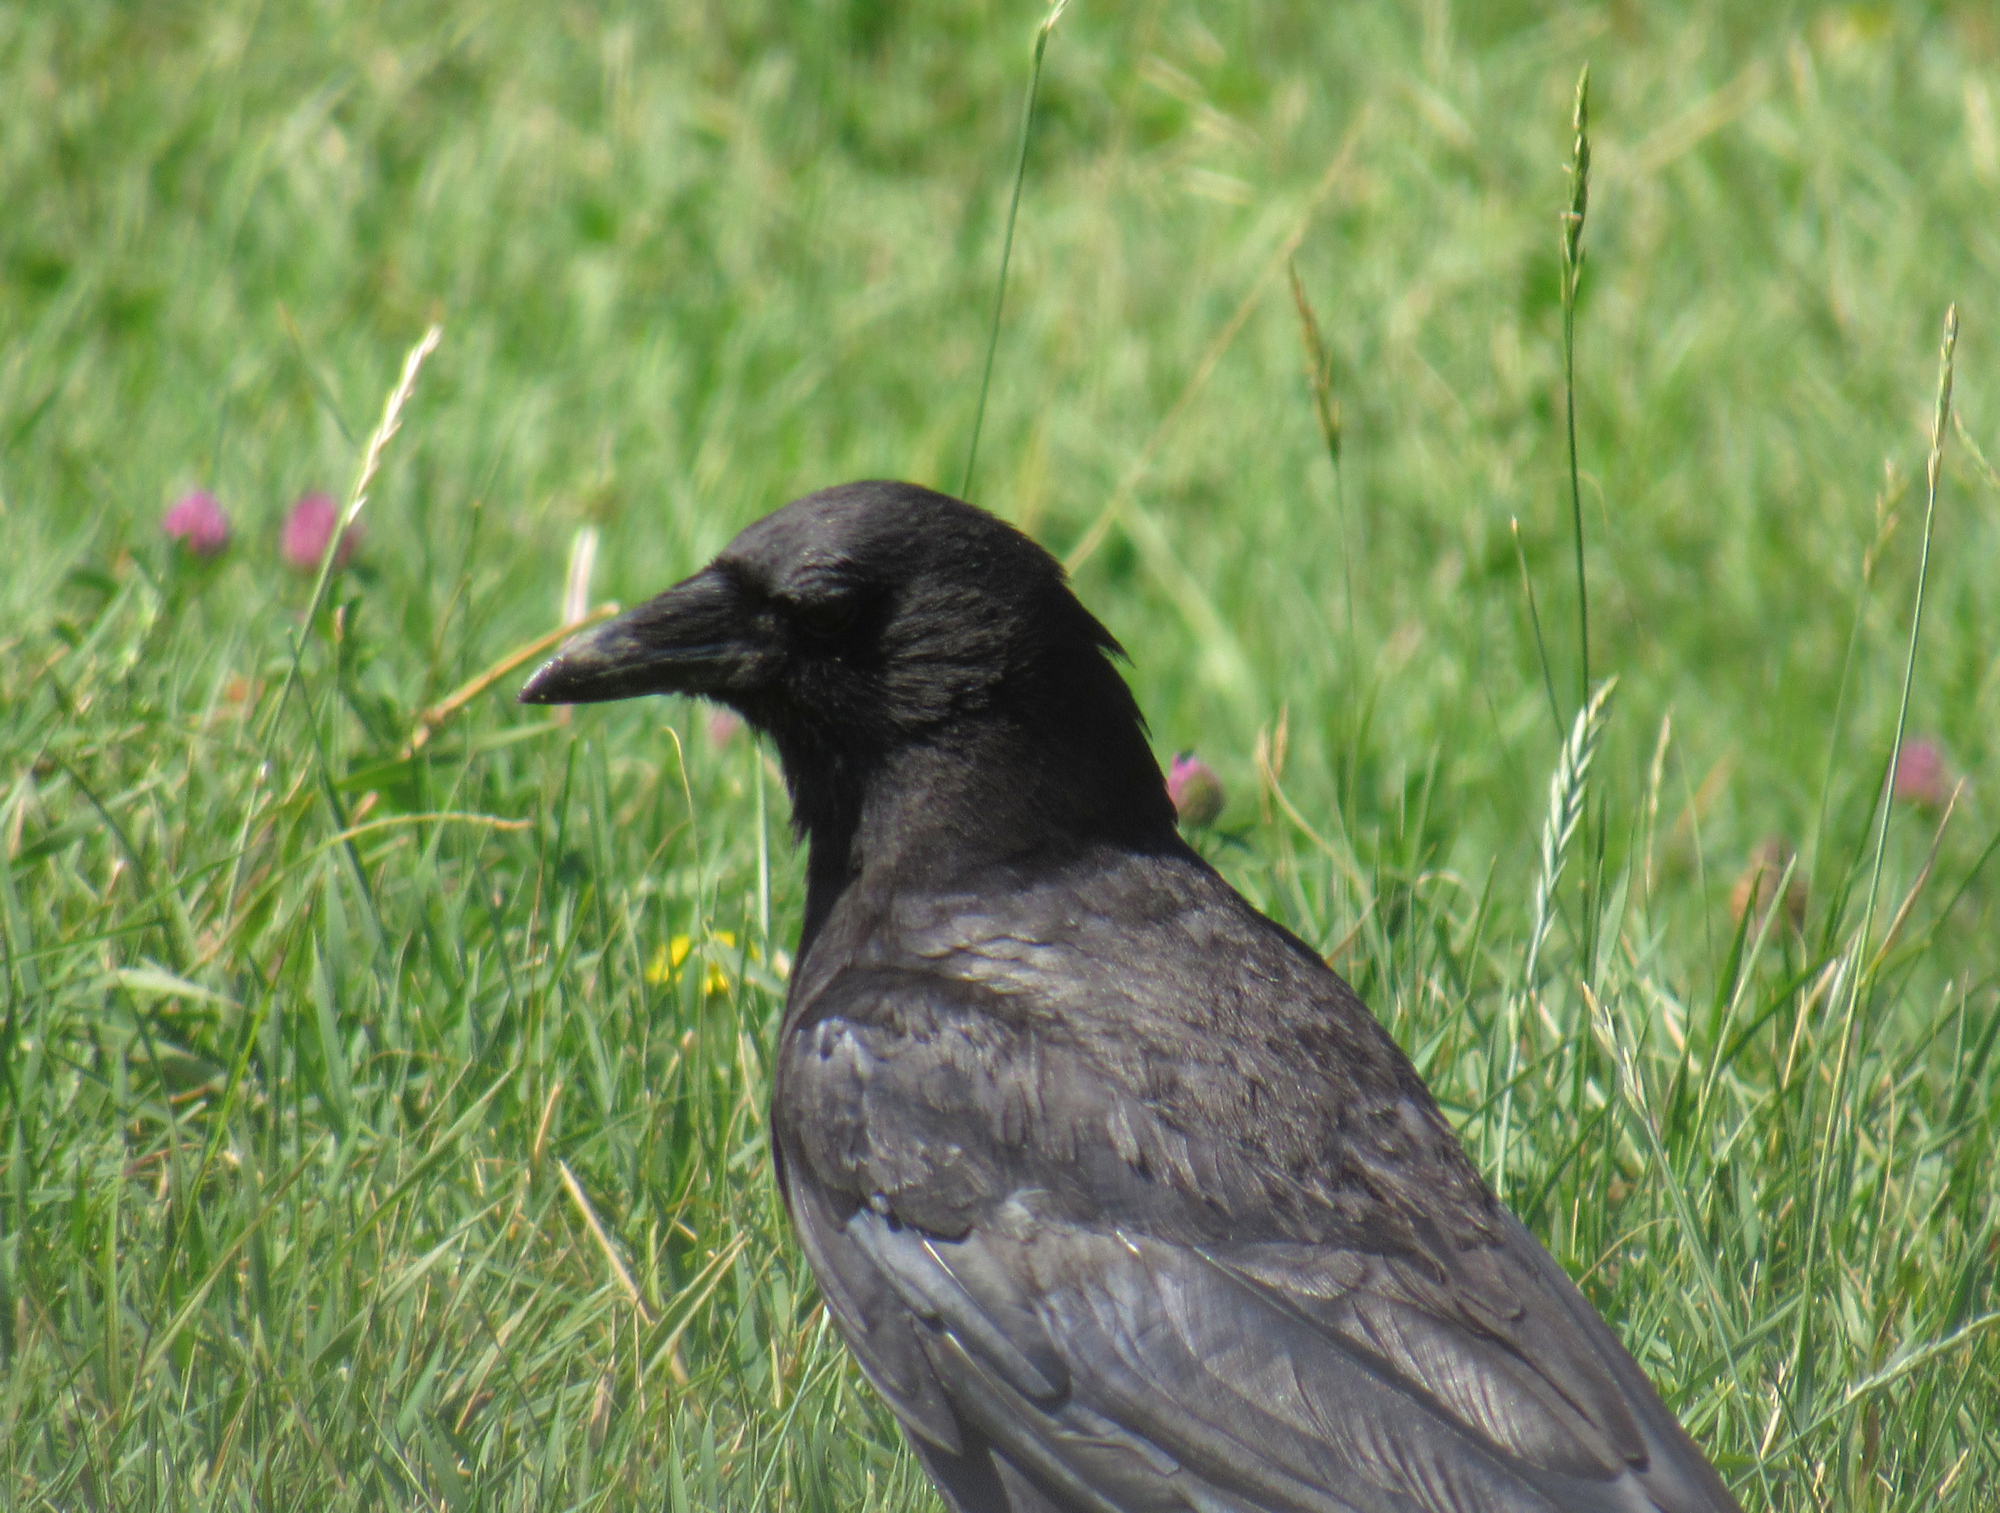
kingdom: Animalia
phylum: Chordata
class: Aves
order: Passeriformes
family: Corvidae
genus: Corvus
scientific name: Corvus brachyrhynchos
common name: American crow
